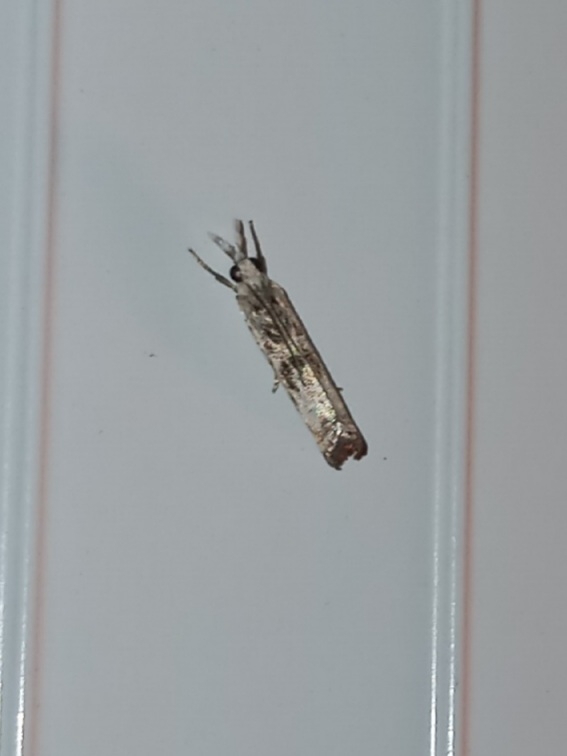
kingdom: Animalia
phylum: Arthropoda
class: Insecta
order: Lepidoptera
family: Crambidae
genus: Microcrambus
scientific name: Microcrambus immunellus
